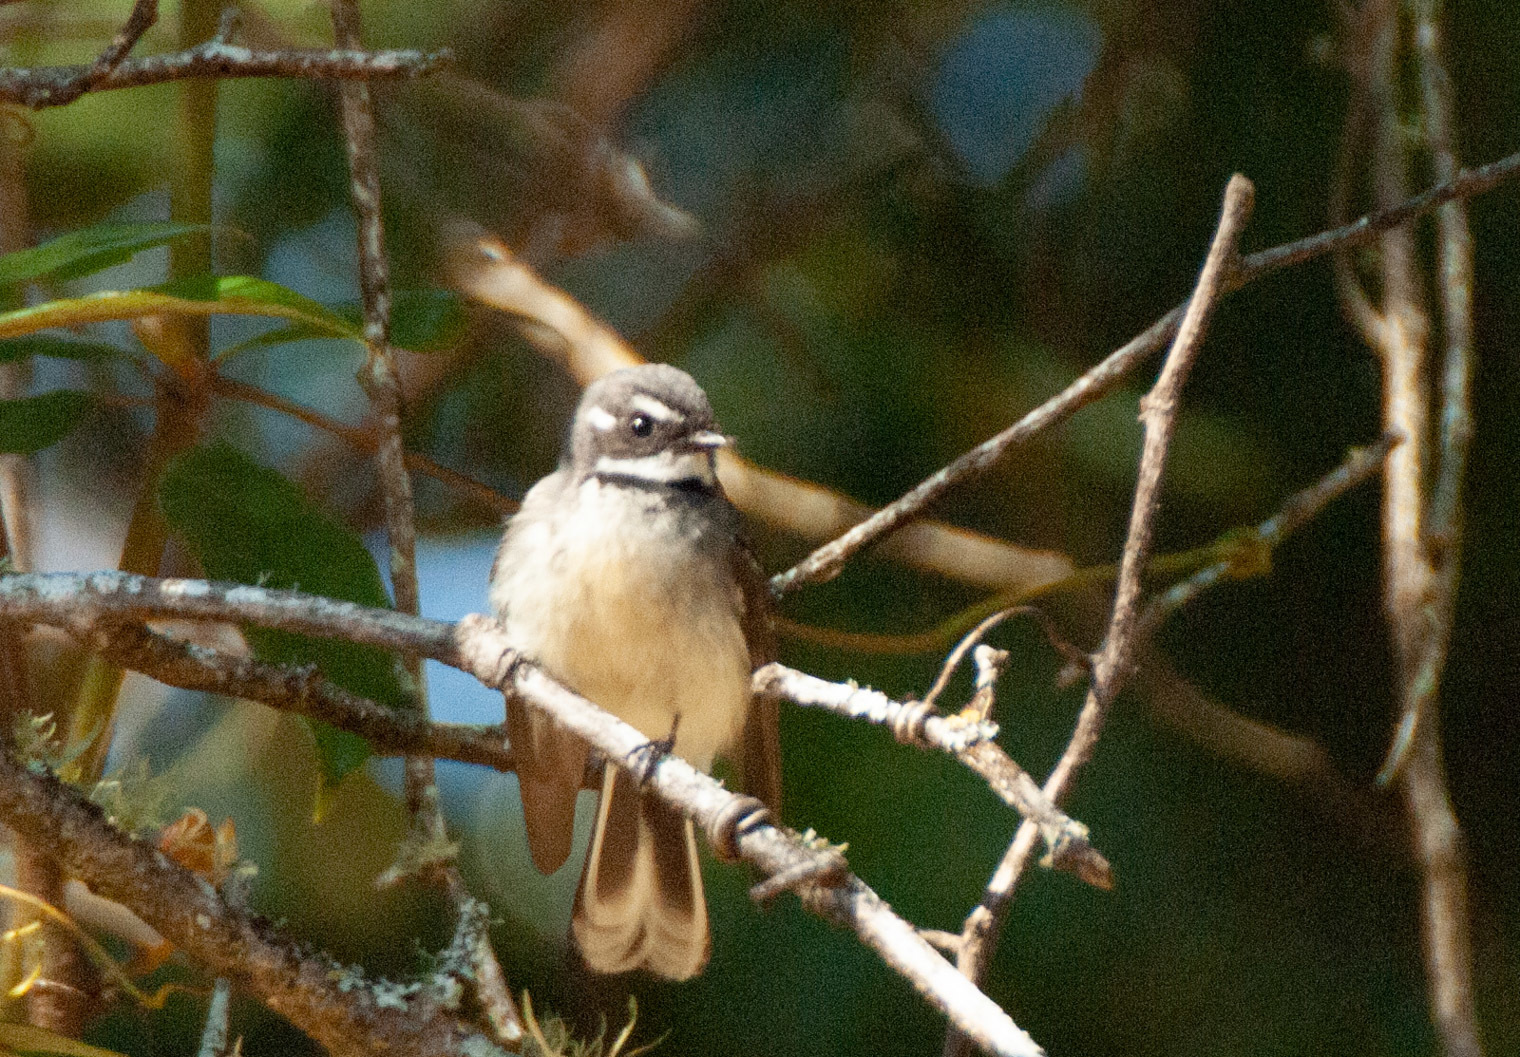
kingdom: Animalia
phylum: Chordata
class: Aves
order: Passeriformes
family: Rhipiduridae
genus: Rhipidura
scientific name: Rhipidura albiscapa
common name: Grey fantail
